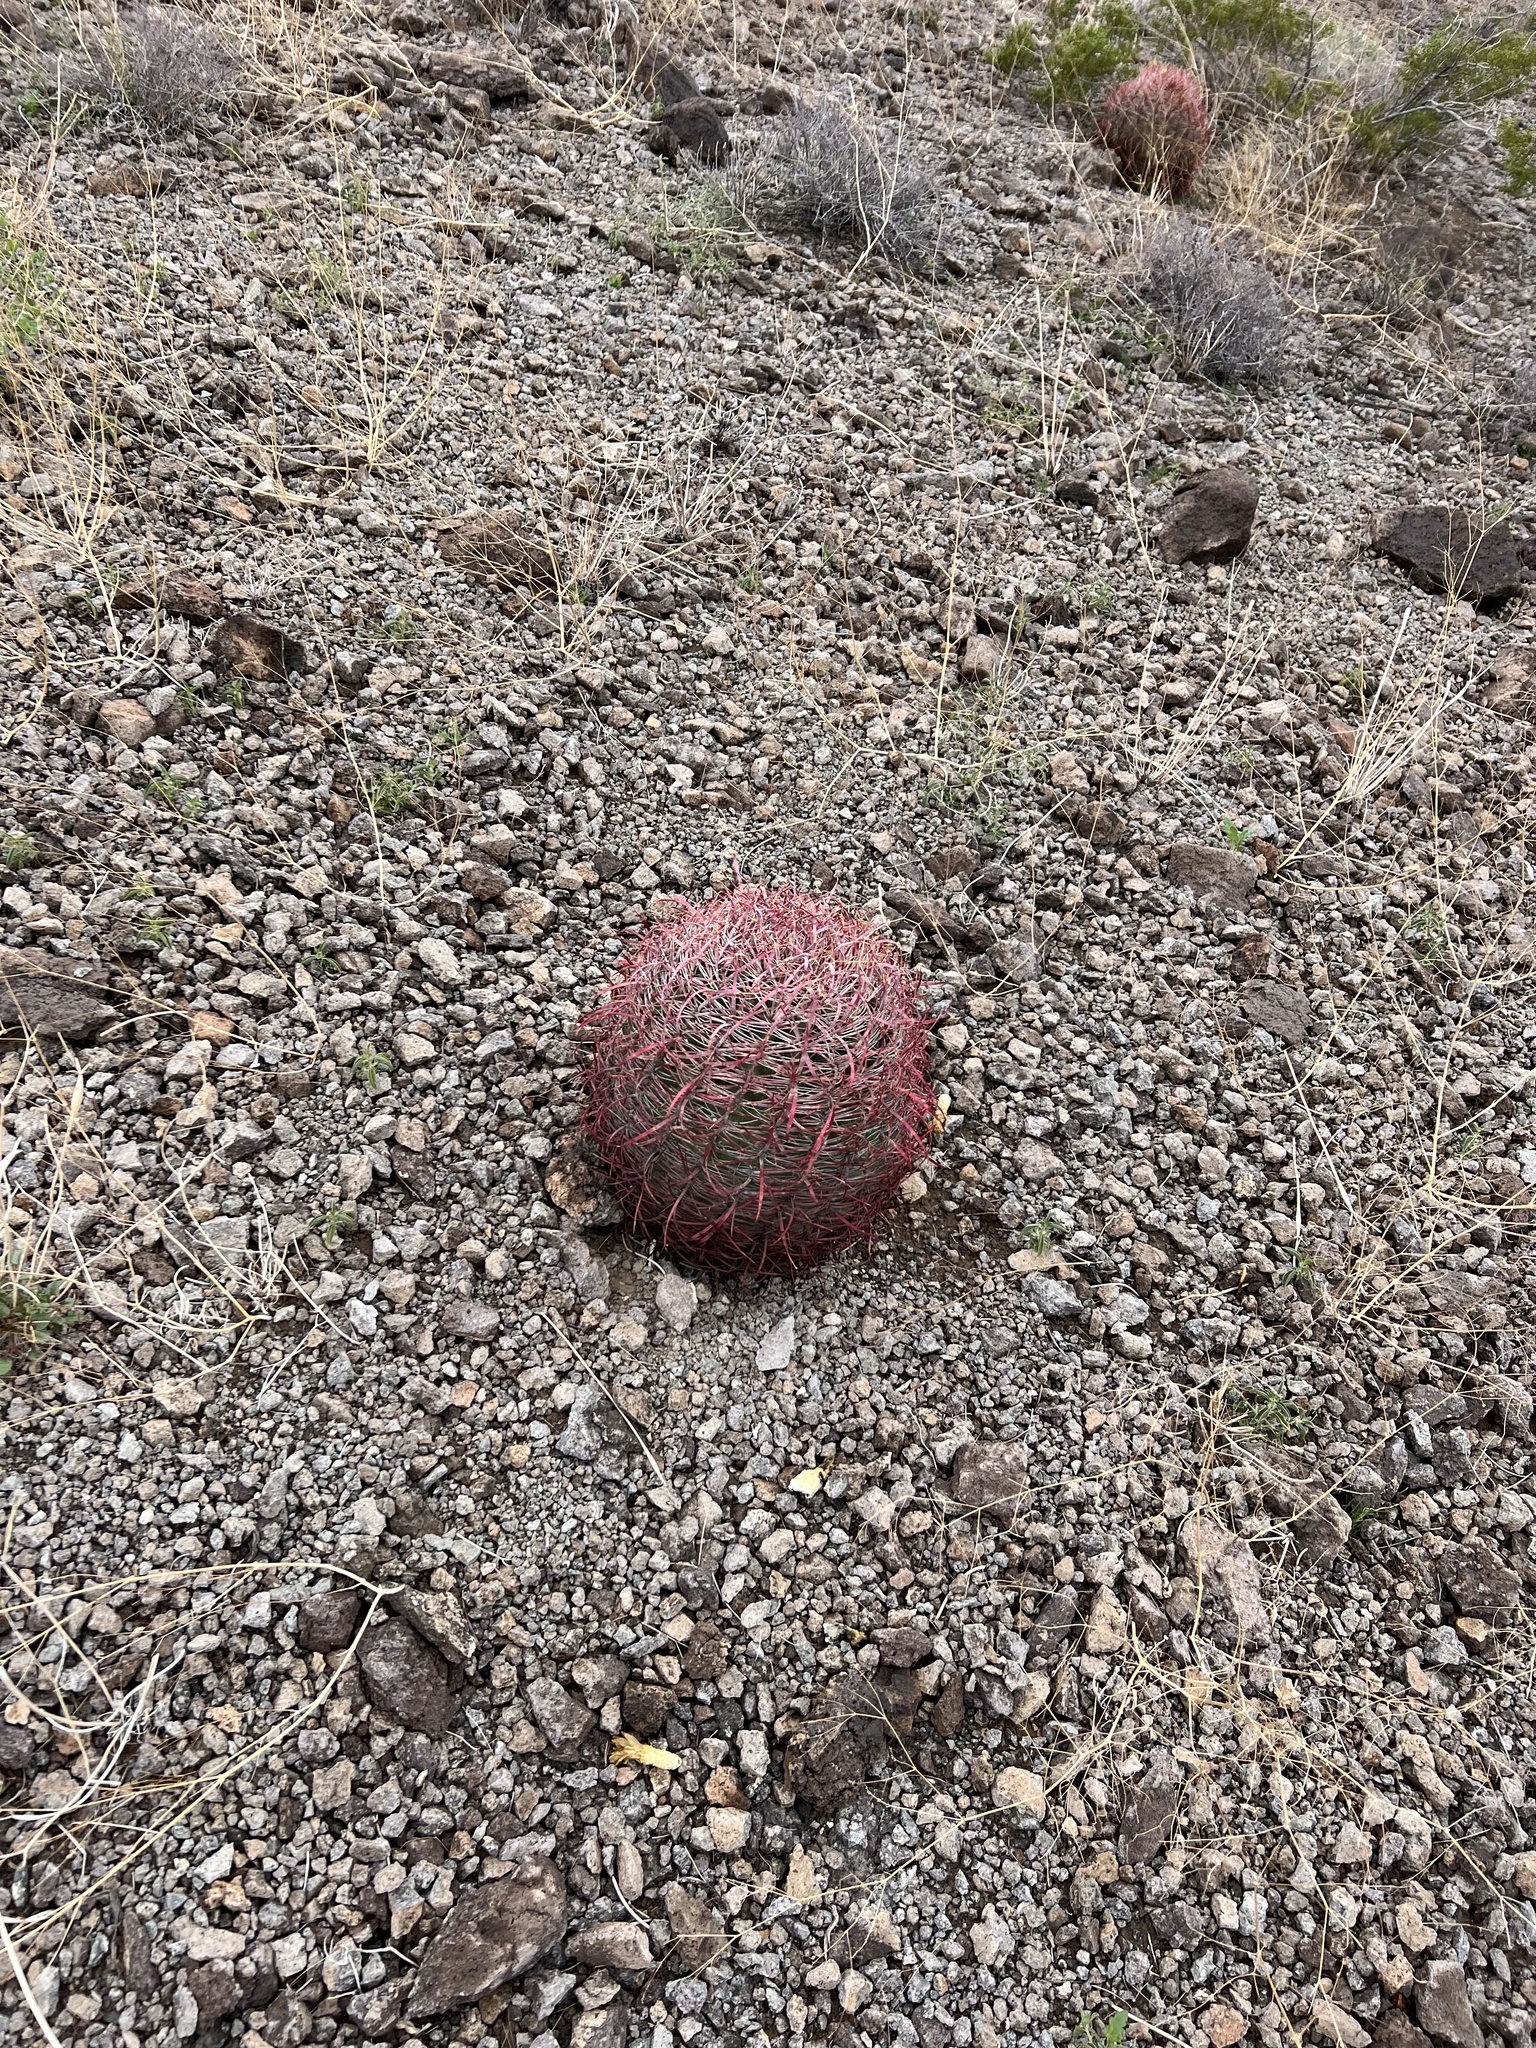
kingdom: Plantae
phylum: Tracheophyta
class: Magnoliopsida
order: Caryophyllales
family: Cactaceae
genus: Ferocactus
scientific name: Ferocactus cylindraceus
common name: California barrel cactus
